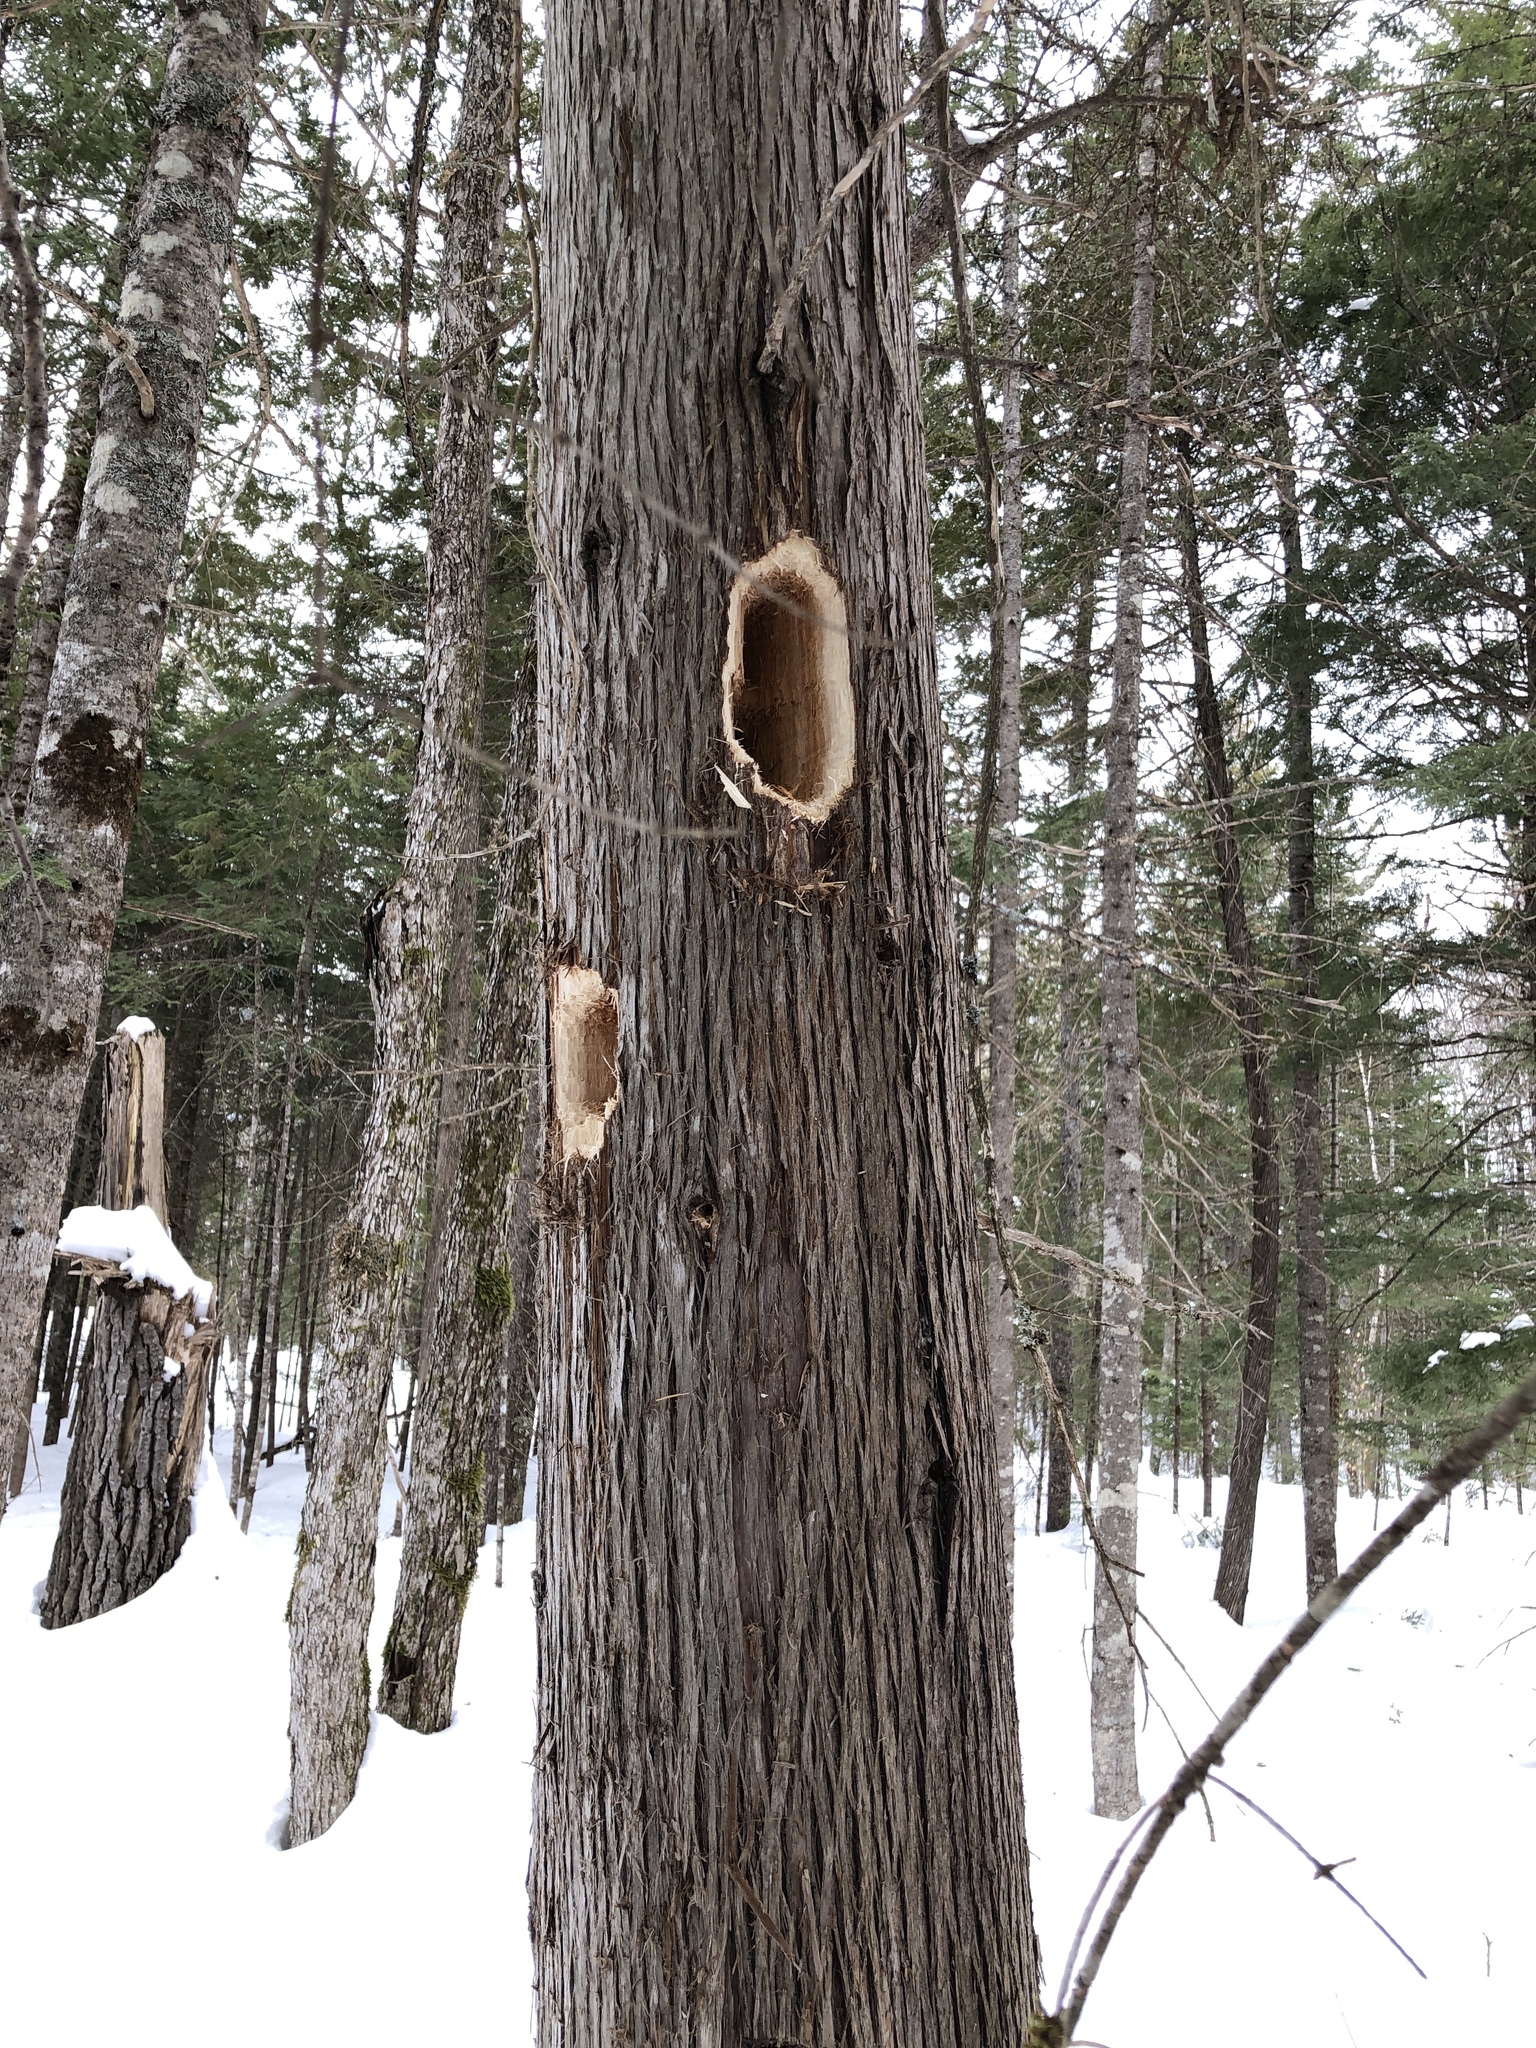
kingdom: Animalia
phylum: Chordata
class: Aves
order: Piciformes
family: Picidae
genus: Dryocopus
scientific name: Dryocopus pileatus
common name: Pileated woodpecker
